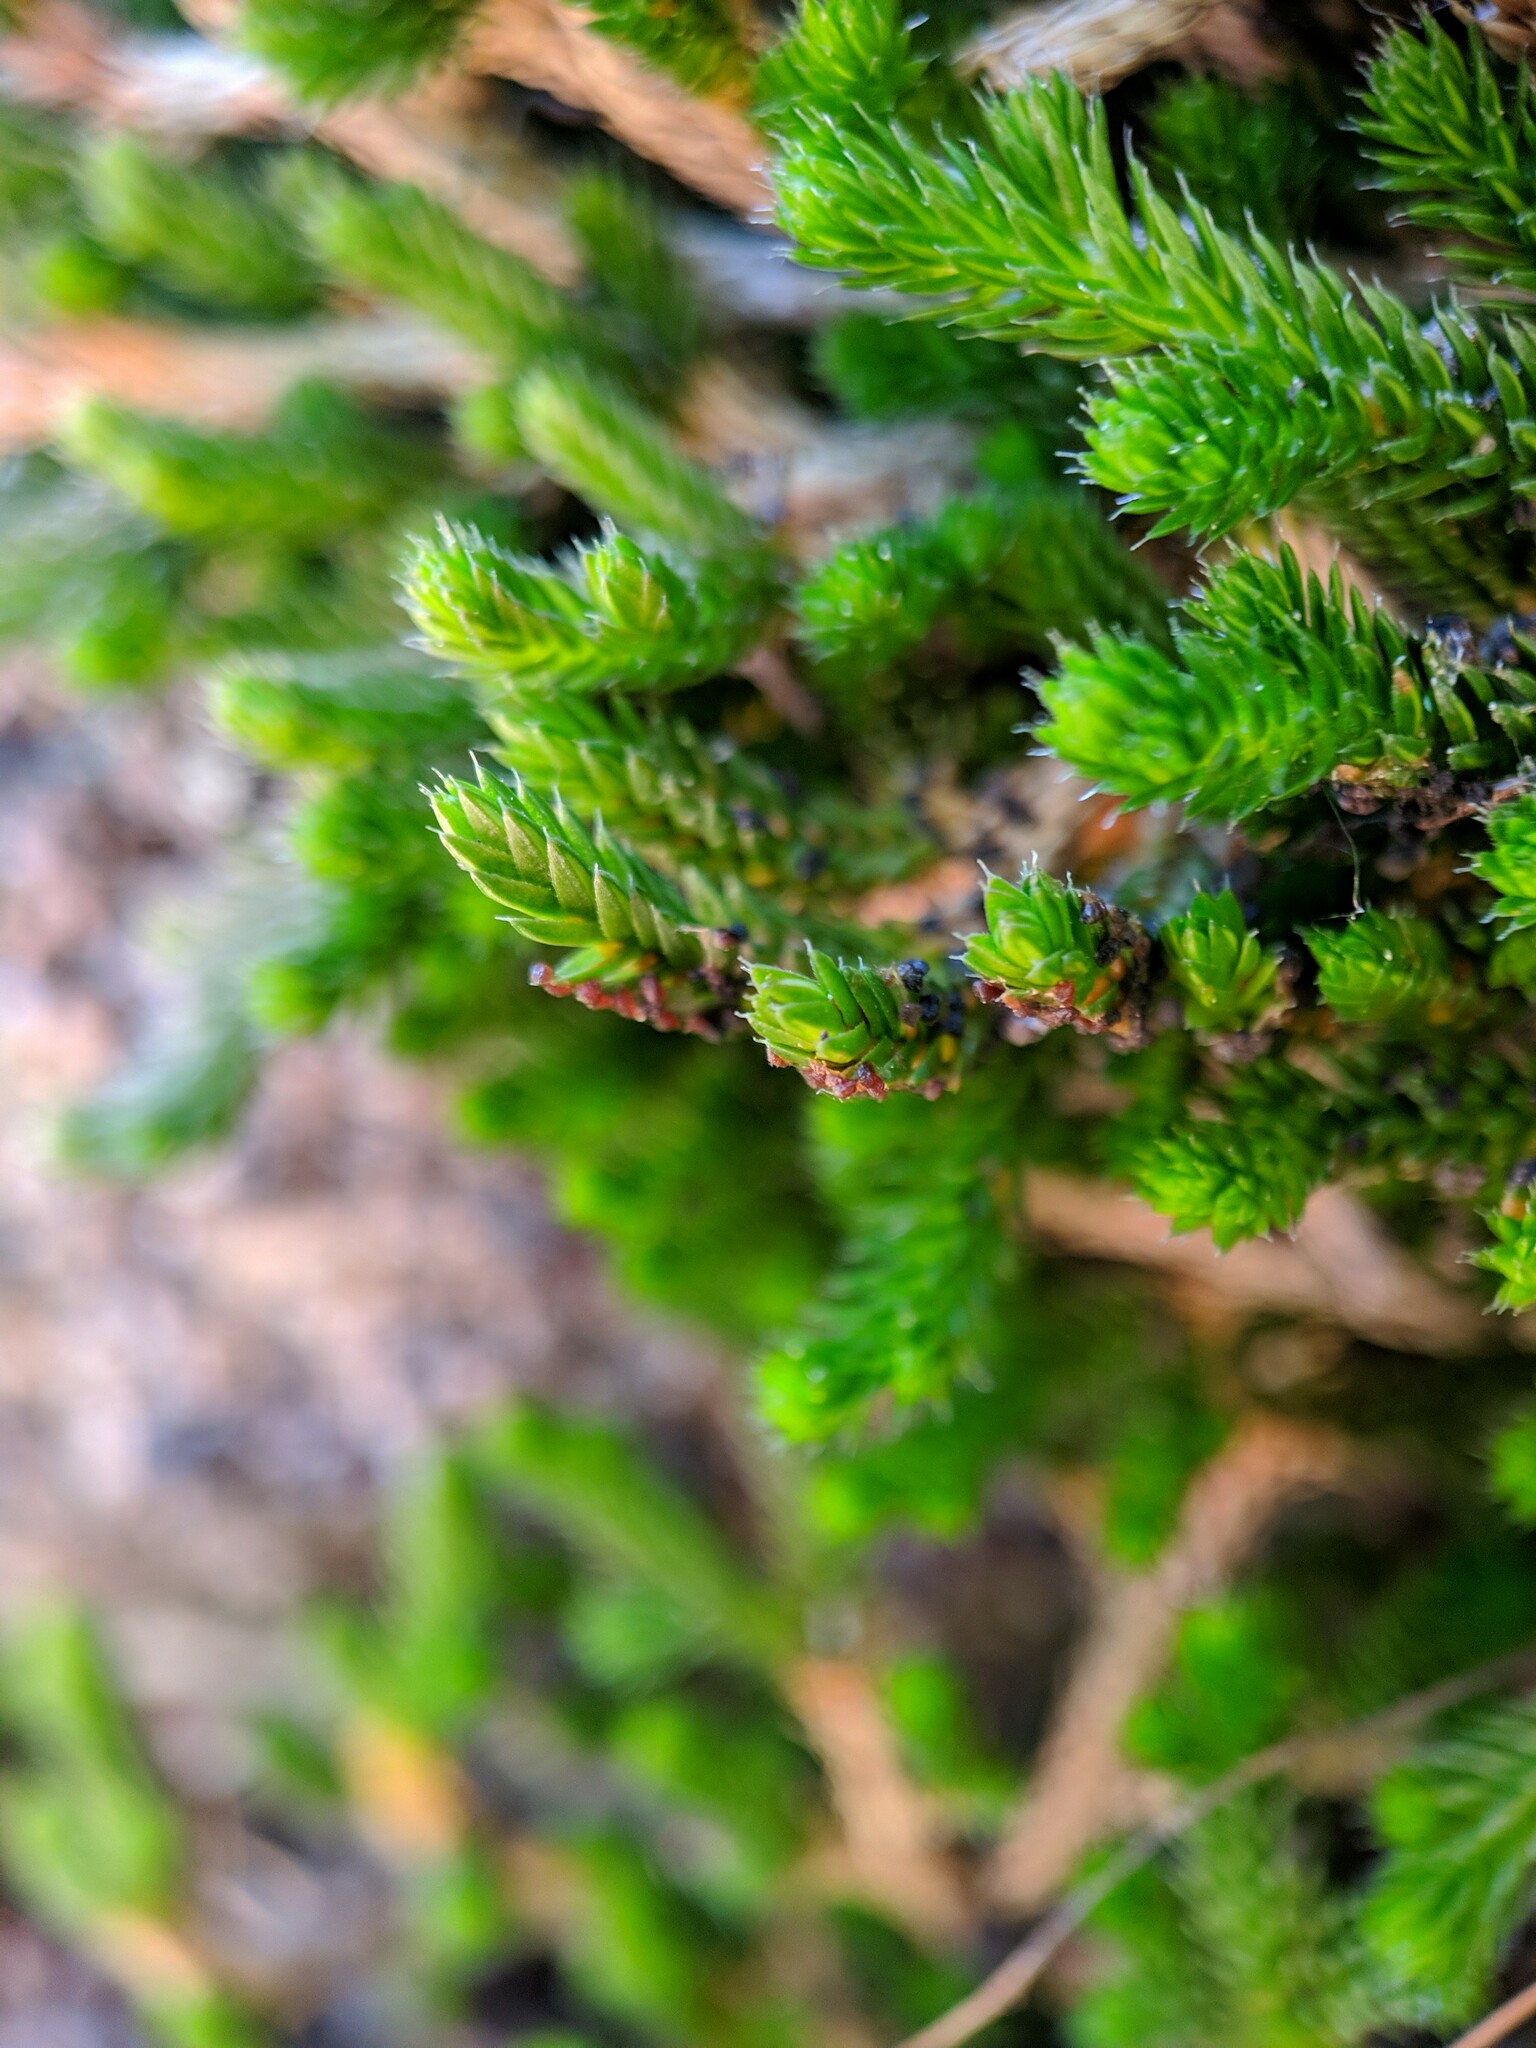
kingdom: Plantae
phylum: Tracheophyta
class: Lycopodiopsida
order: Selaginellales
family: Selaginellaceae
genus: Selaginella
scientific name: Selaginella wallacei
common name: Wallace's selaginella
